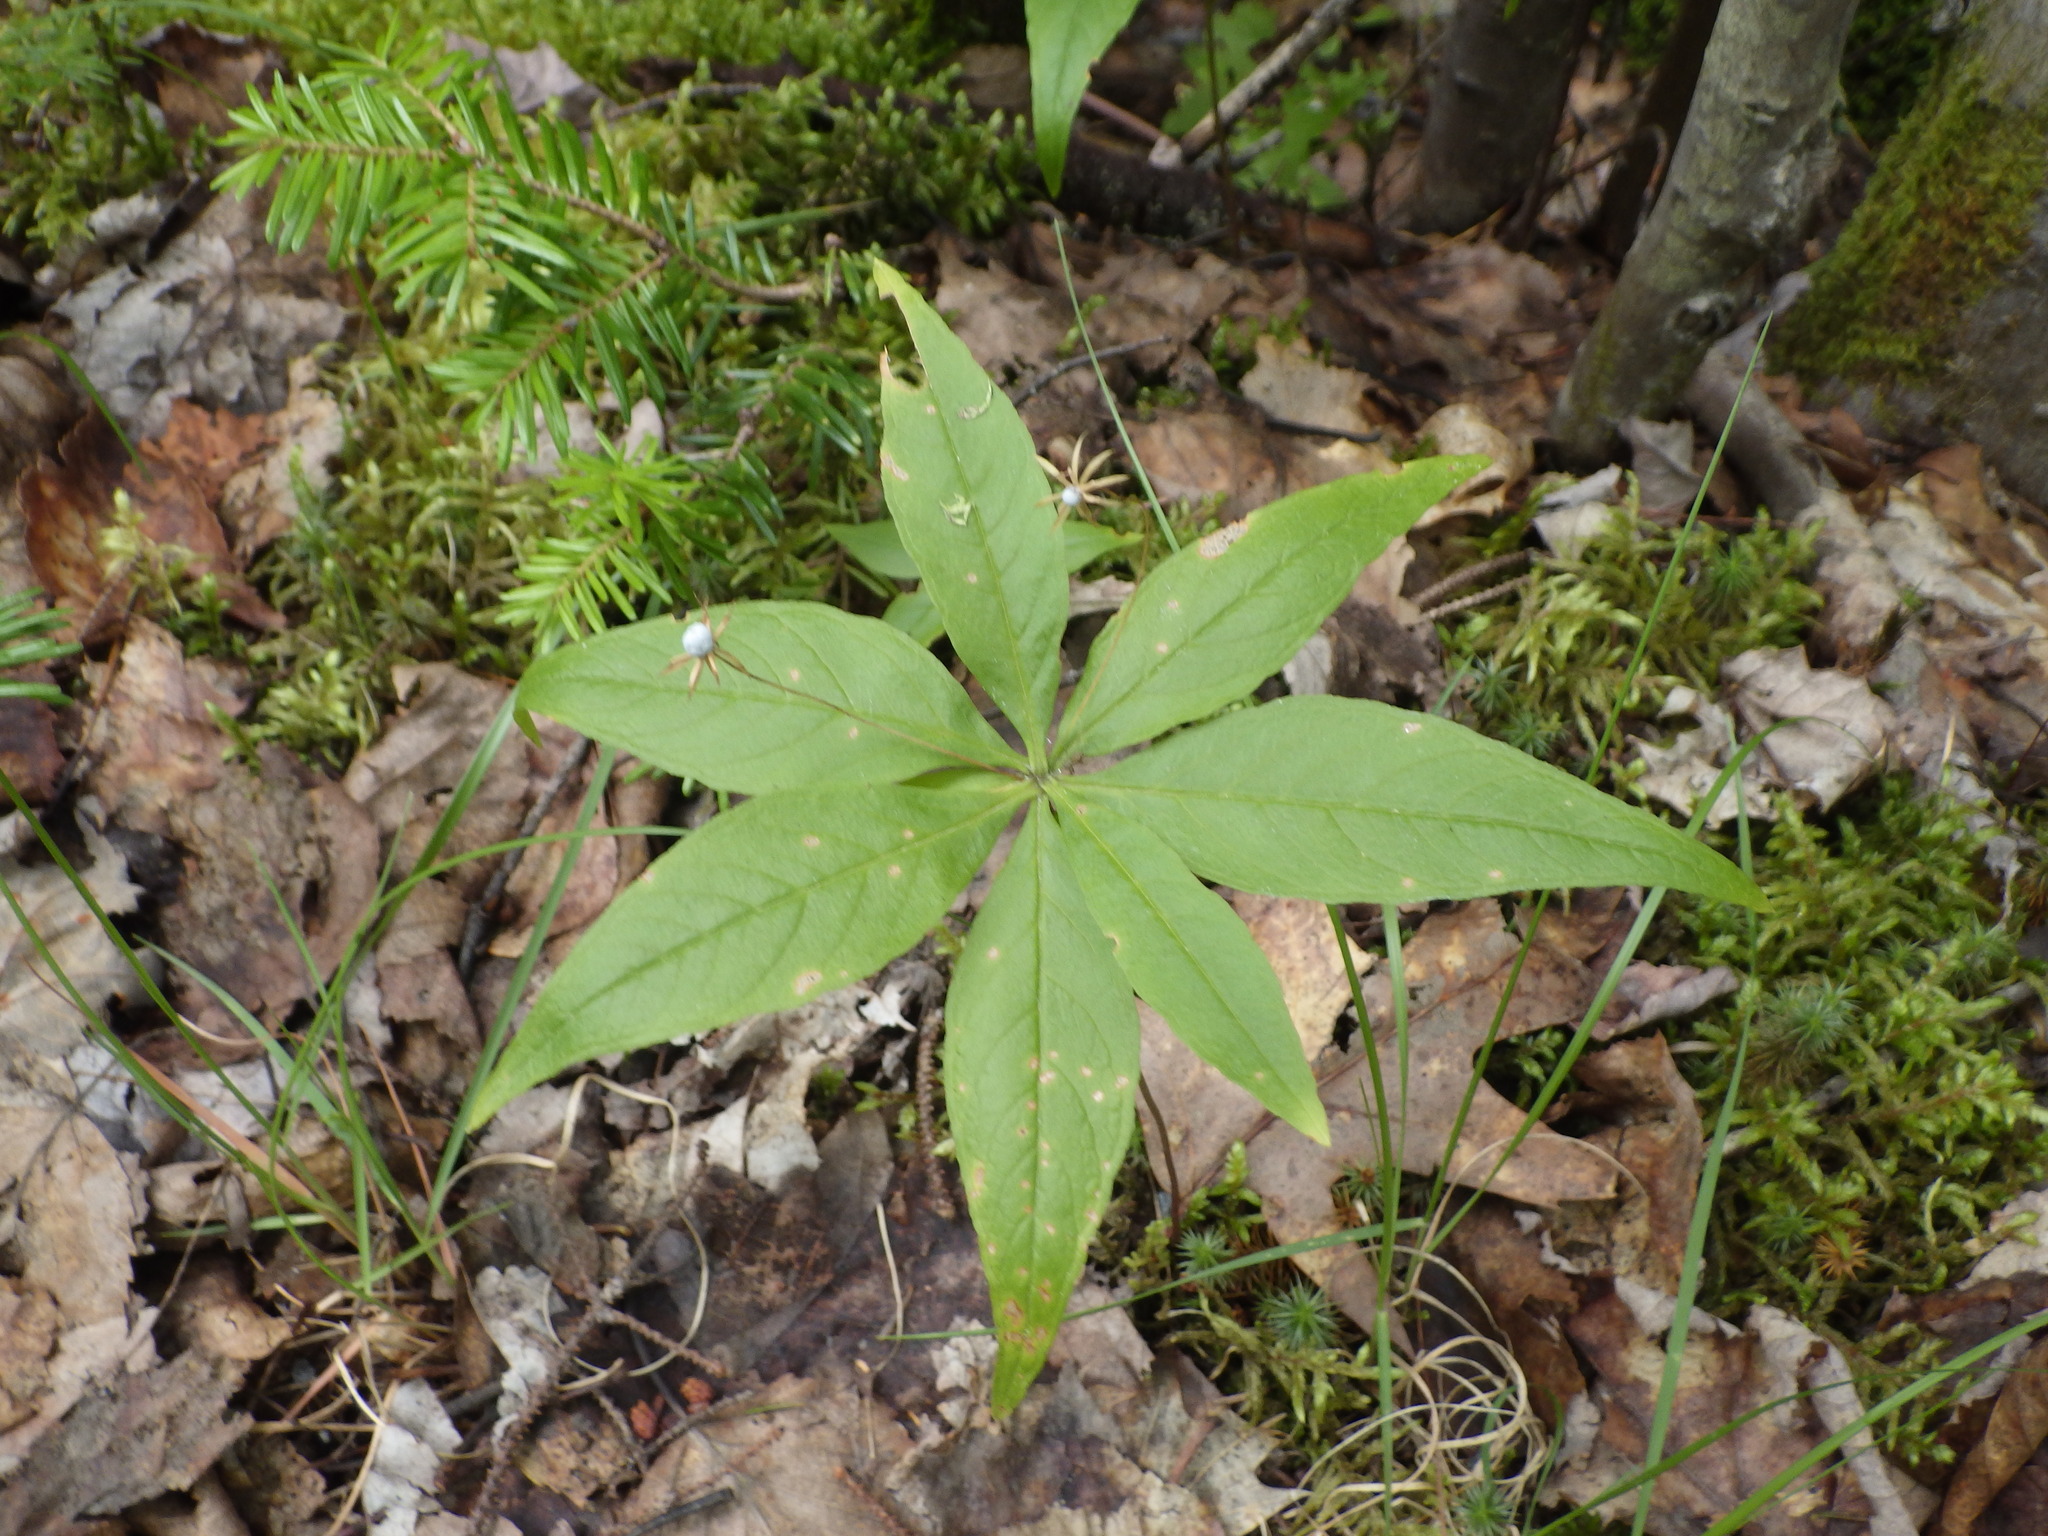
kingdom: Plantae
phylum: Tracheophyta
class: Magnoliopsida
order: Ericales
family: Primulaceae
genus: Lysimachia
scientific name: Lysimachia borealis
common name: American starflower
